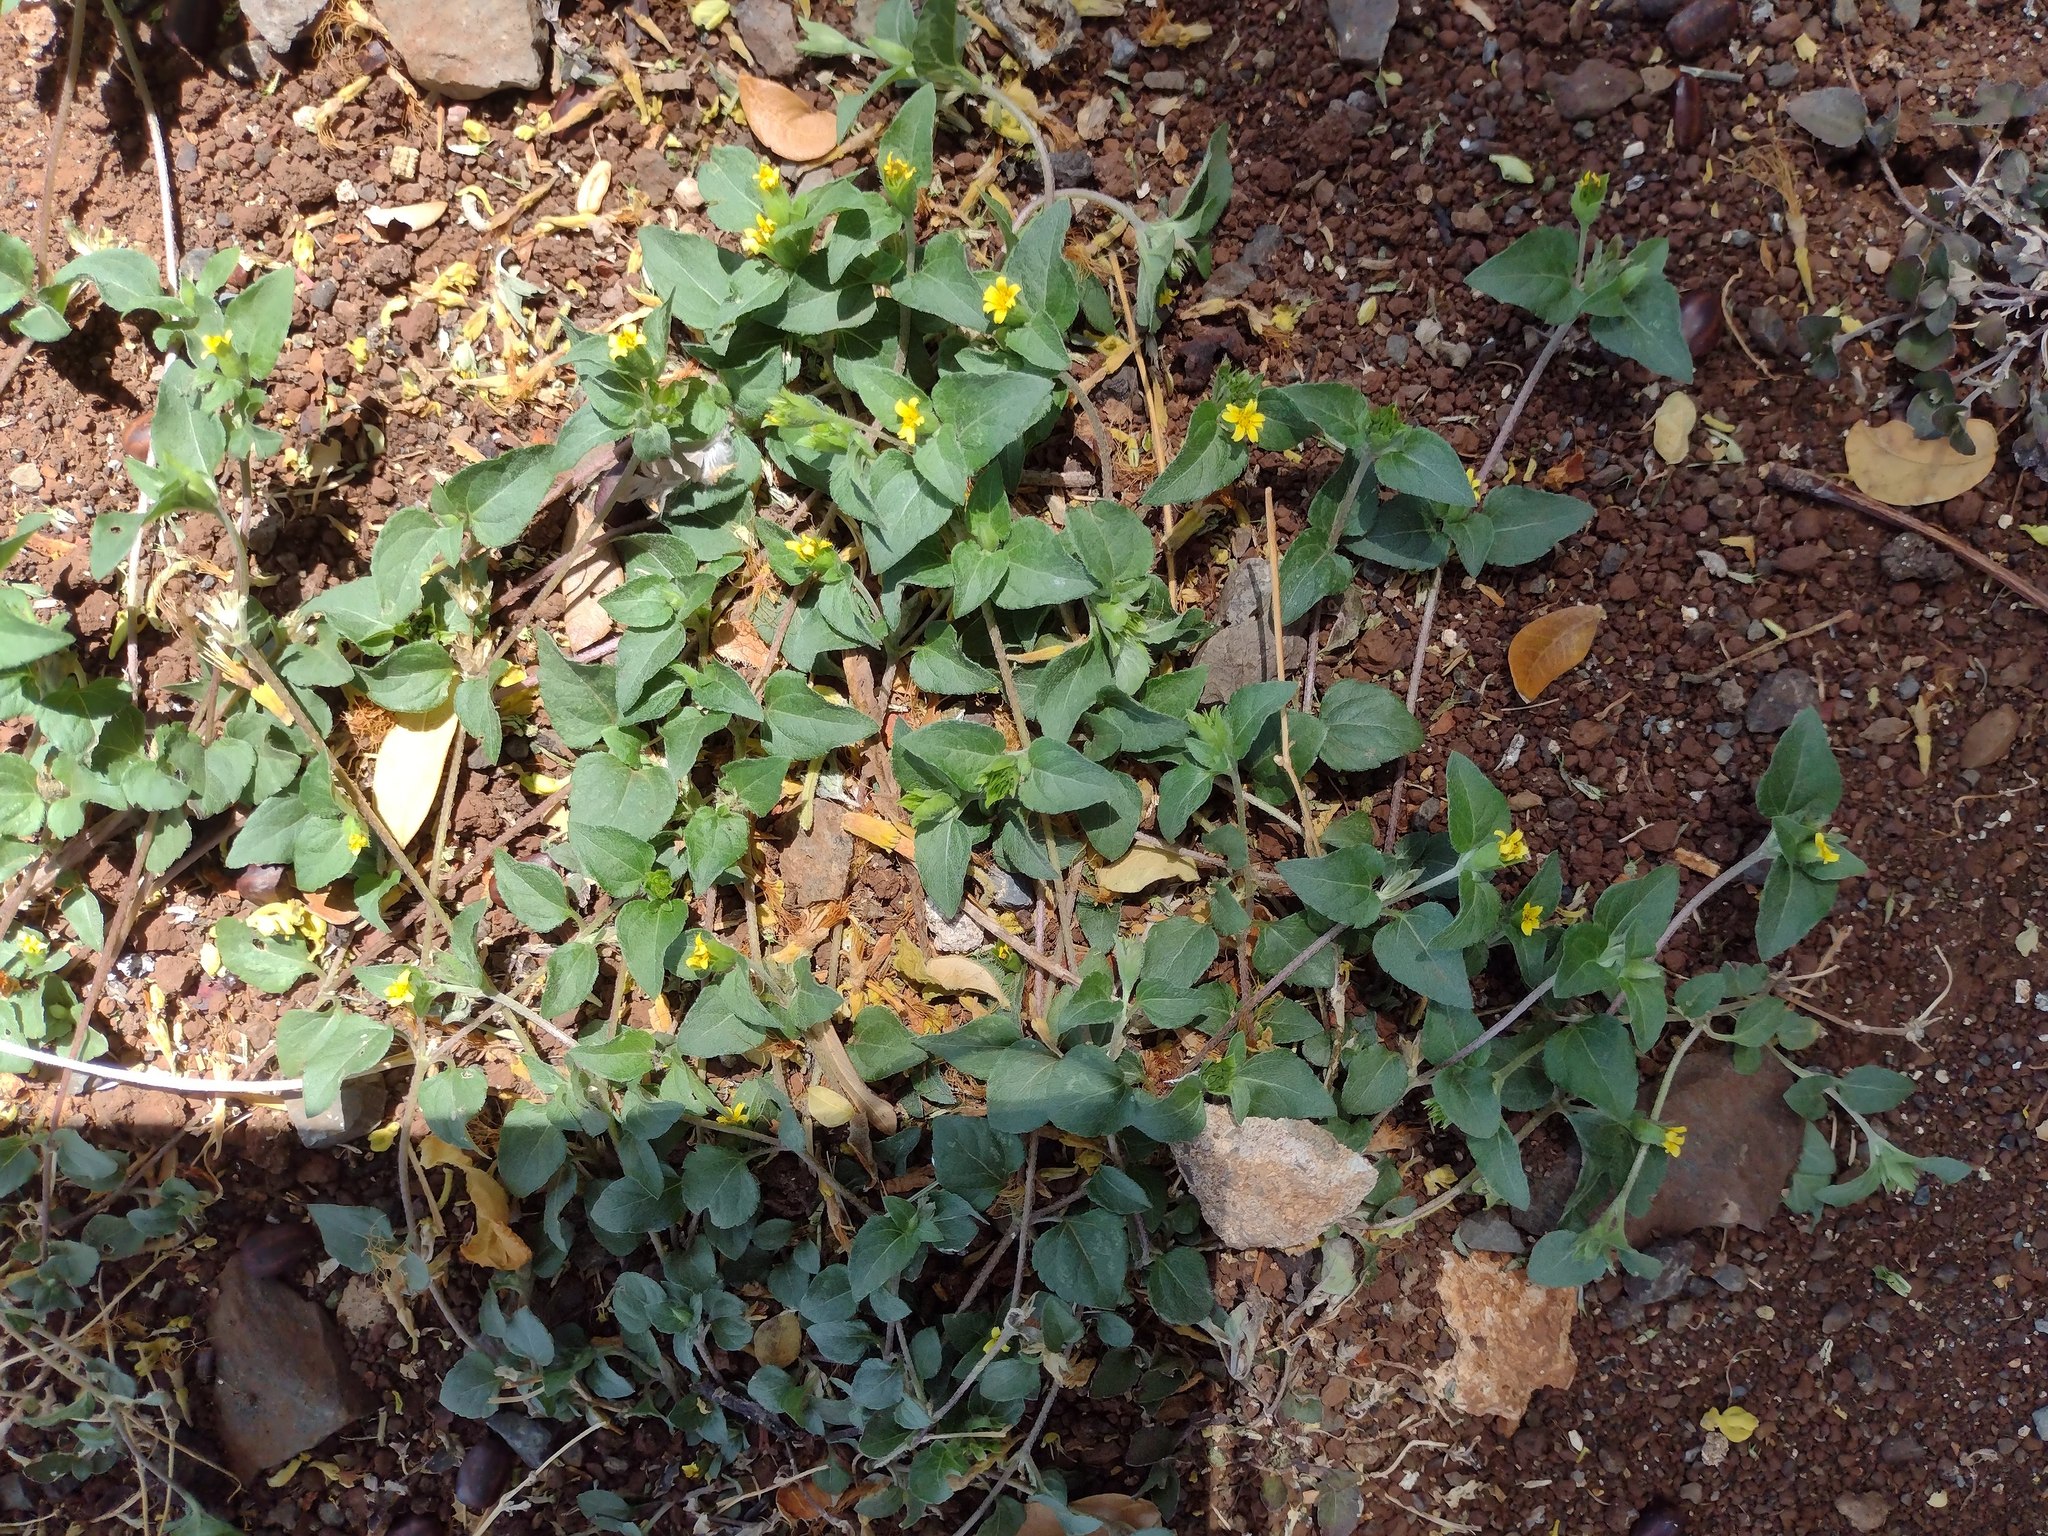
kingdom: Plantae
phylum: Tracheophyta
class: Magnoliopsida
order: Asterales
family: Asteraceae
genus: Calyptocarpus
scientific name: Calyptocarpus vialis
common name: Straggler daisy
